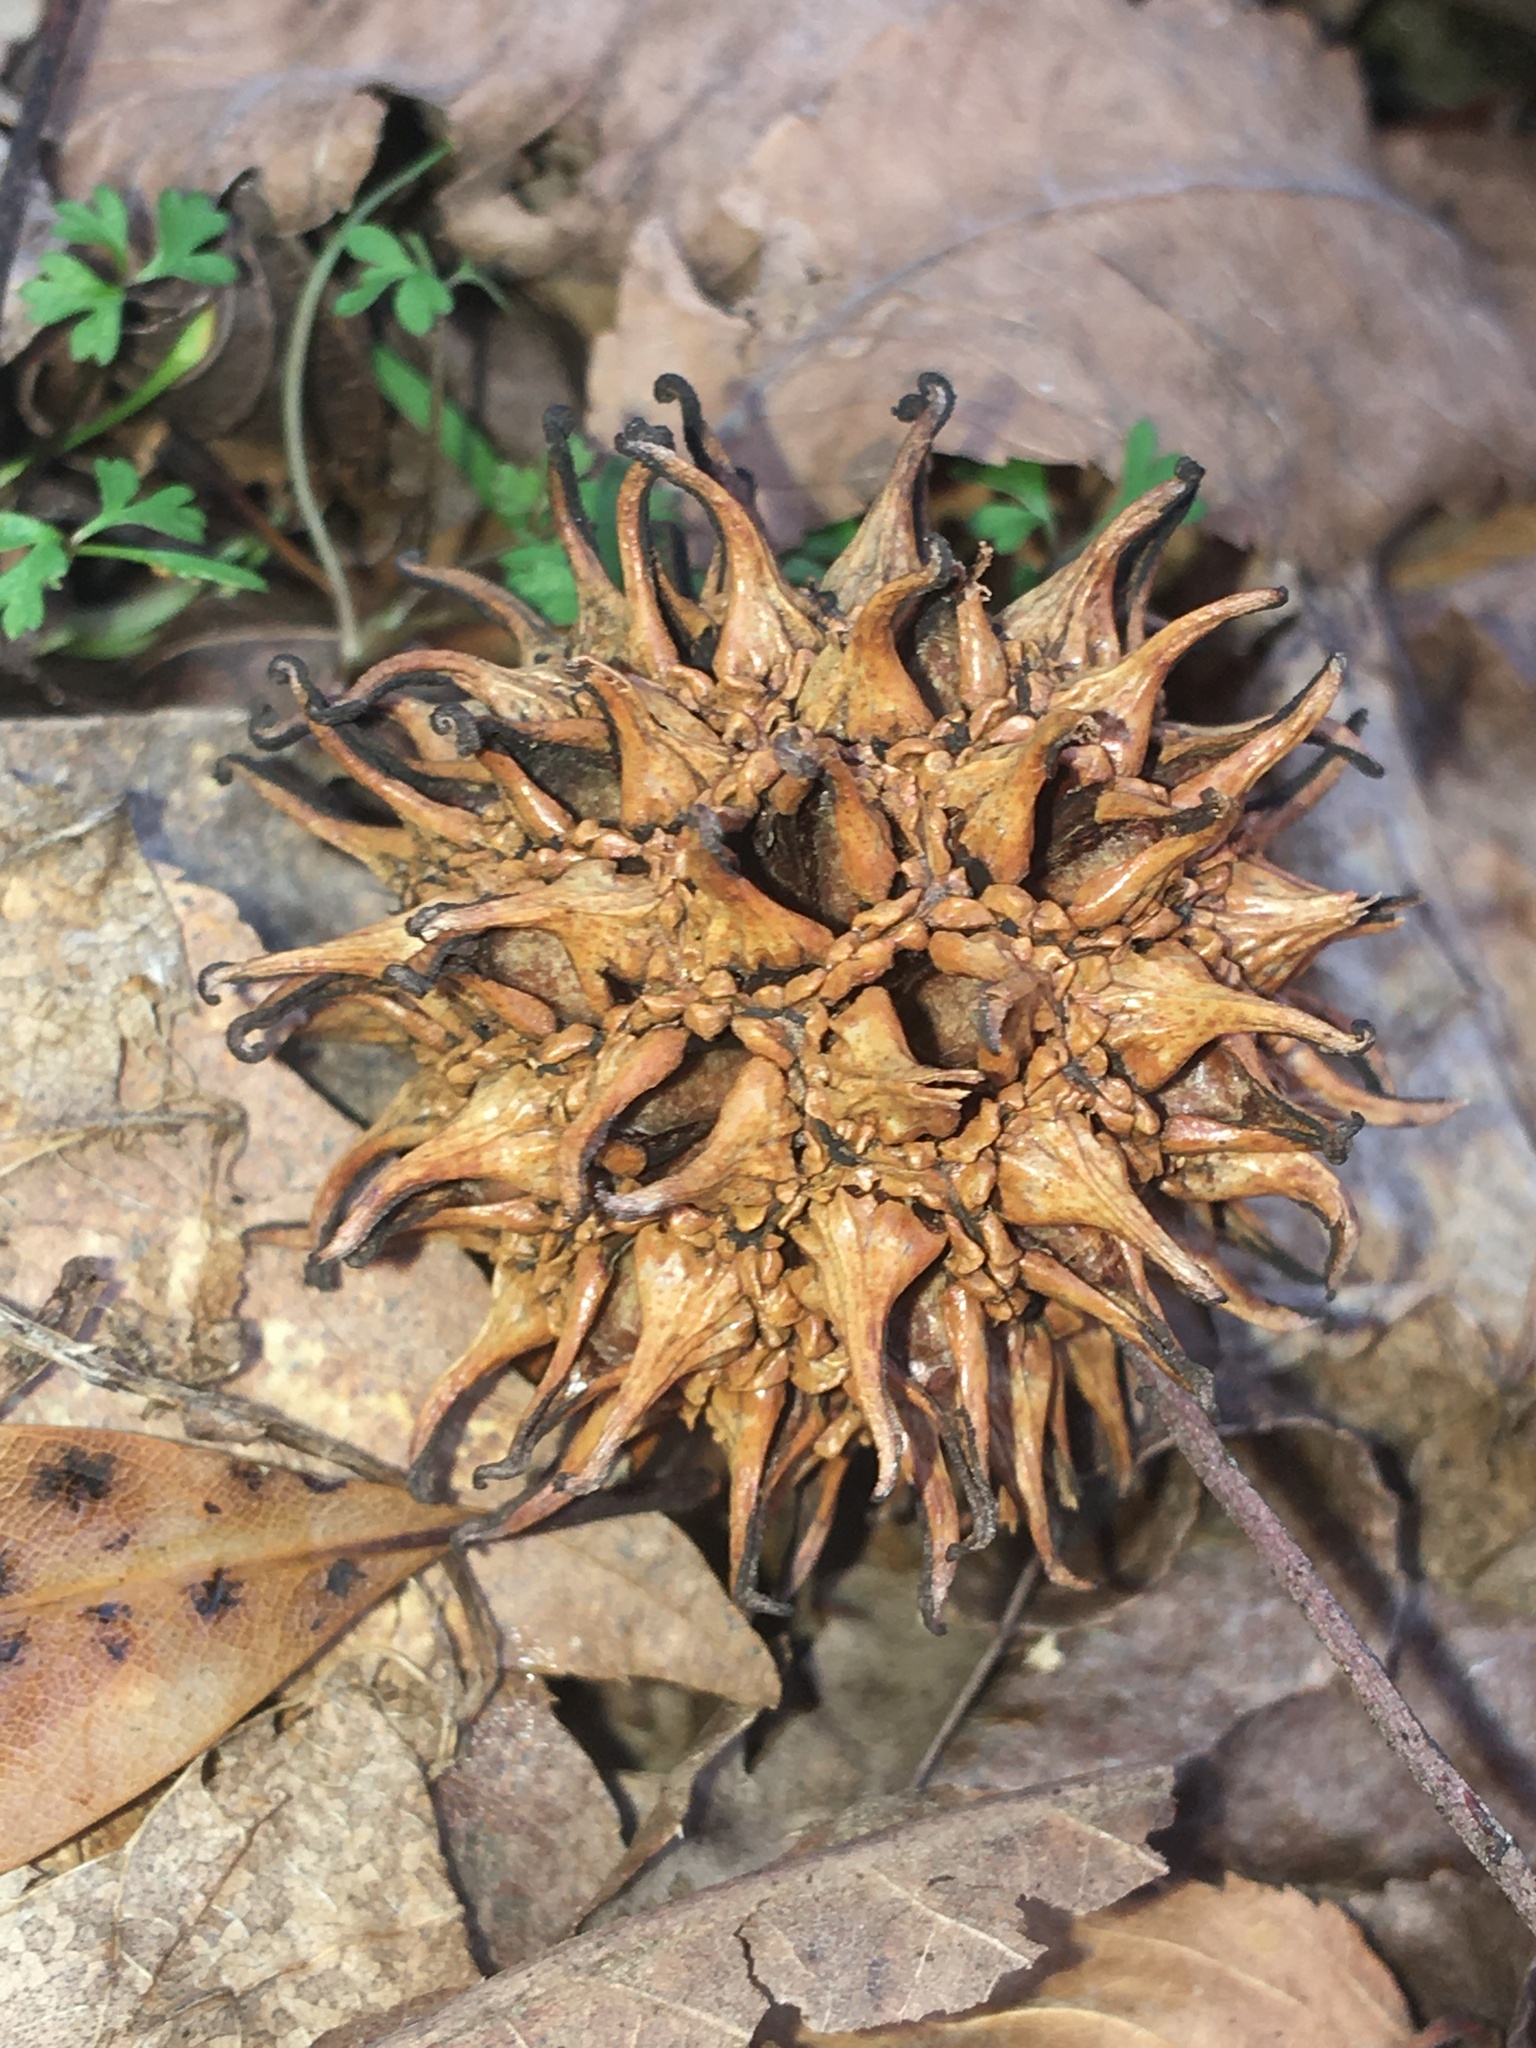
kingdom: Plantae
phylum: Tracheophyta
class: Magnoliopsida
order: Saxifragales
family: Altingiaceae
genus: Liquidambar
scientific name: Liquidambar styraciflua
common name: Sweet gum
